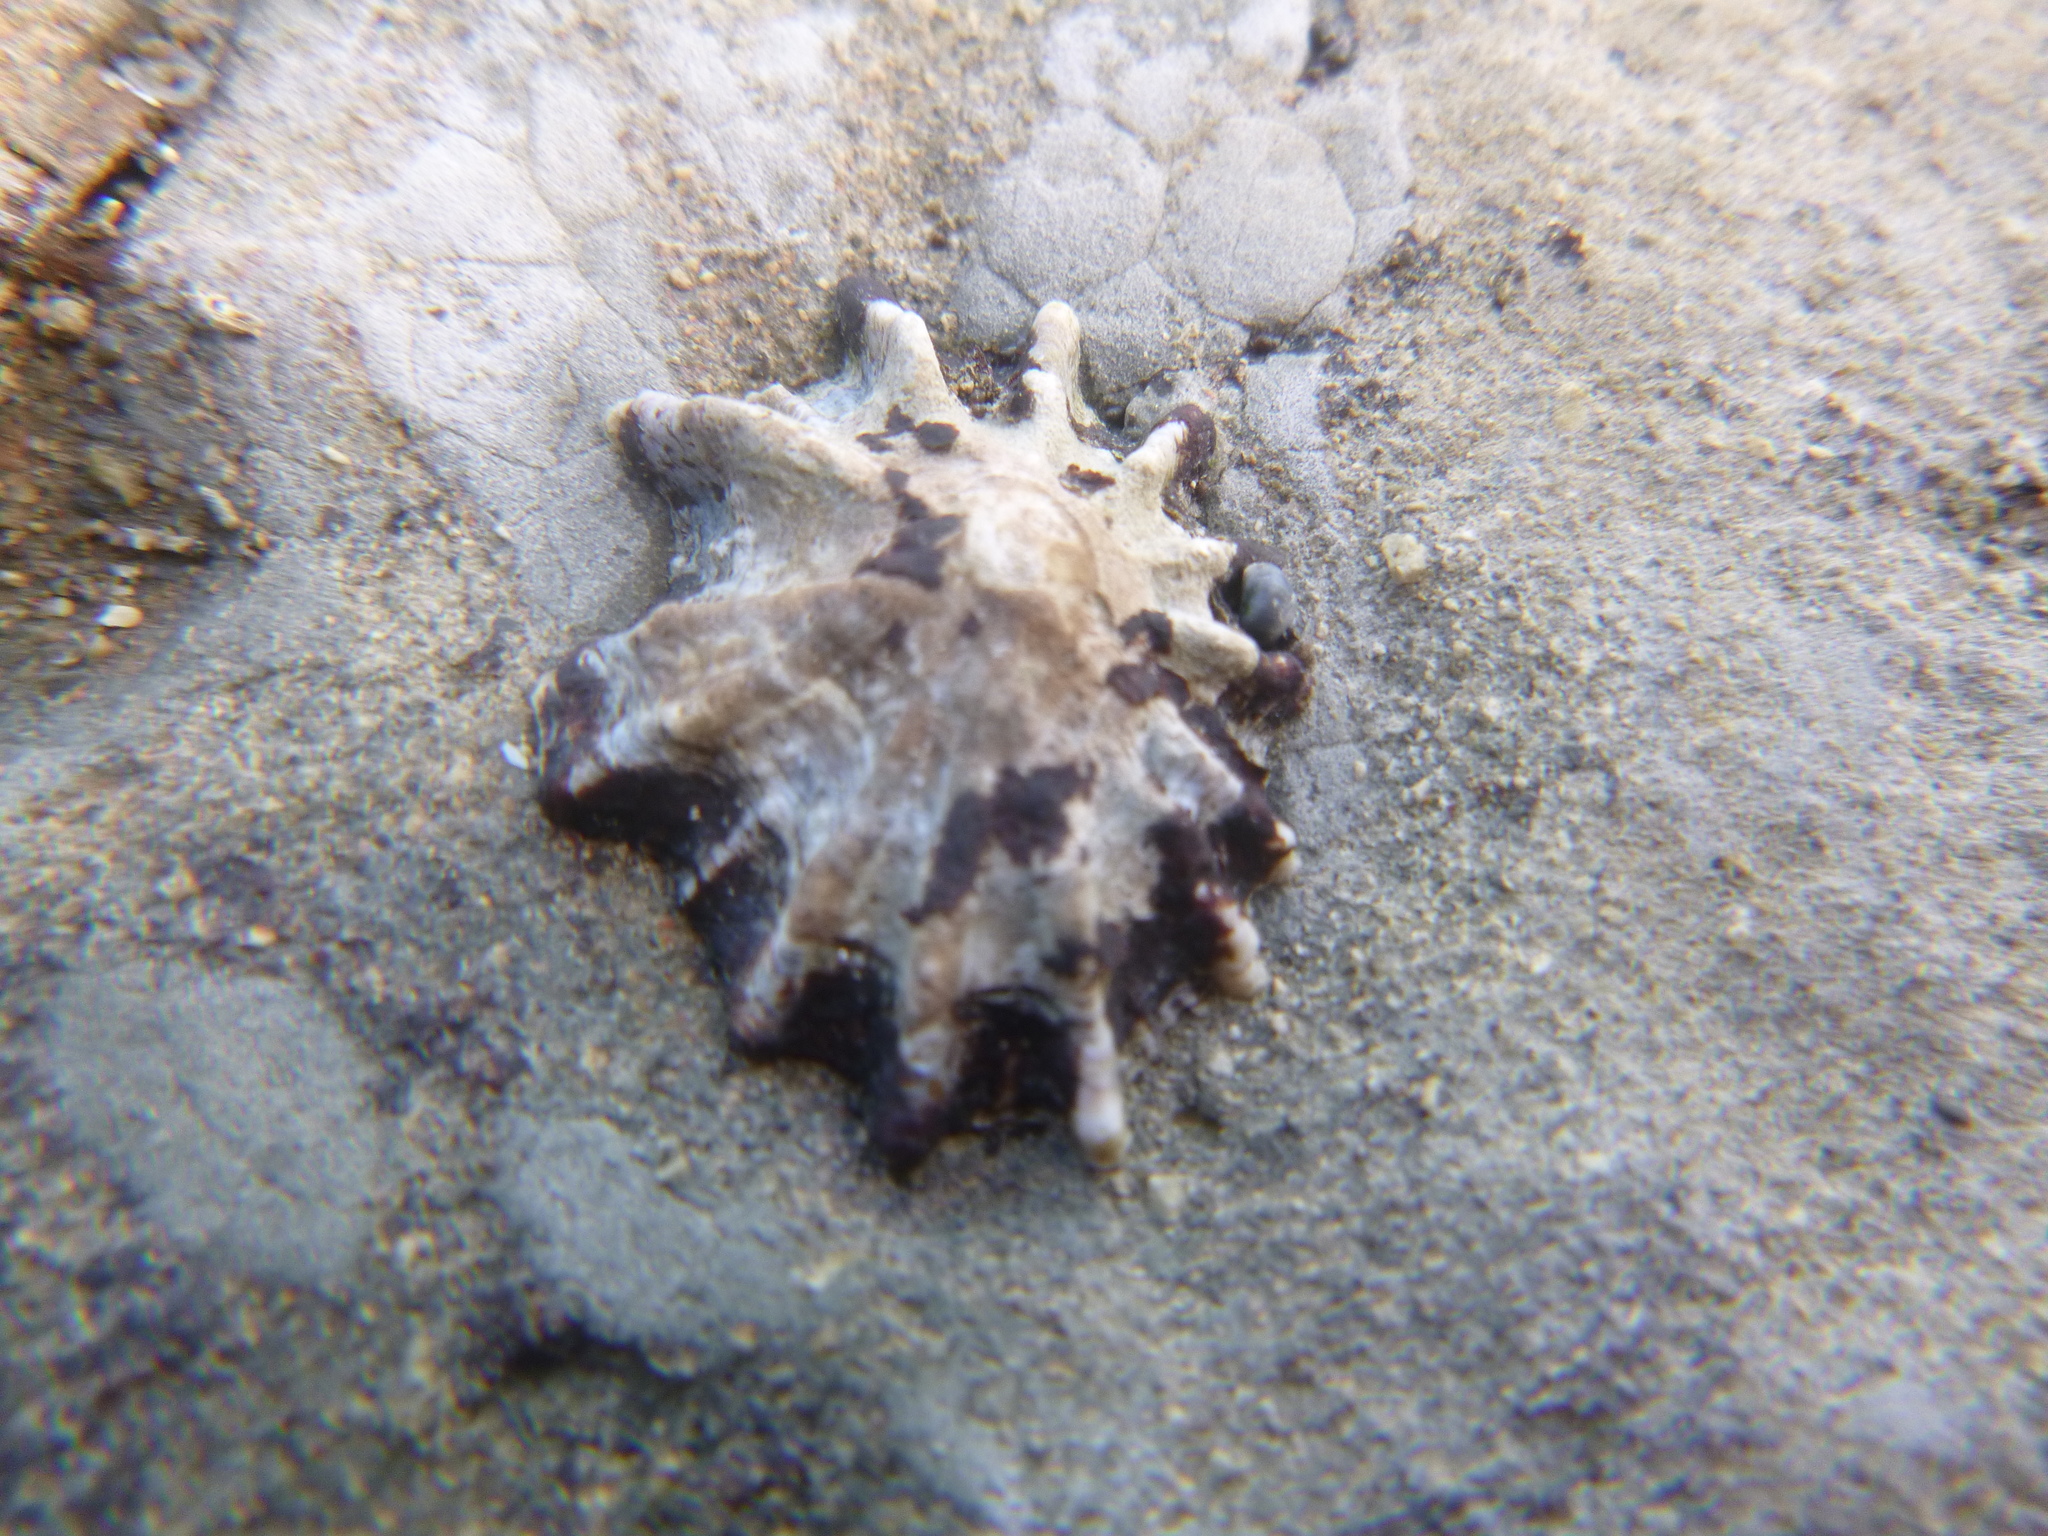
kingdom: Animalia
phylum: Mollusca
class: Gastropoda
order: Siphonariida
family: Siphonariidae
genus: Siphonaria
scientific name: Siphonaria australis
